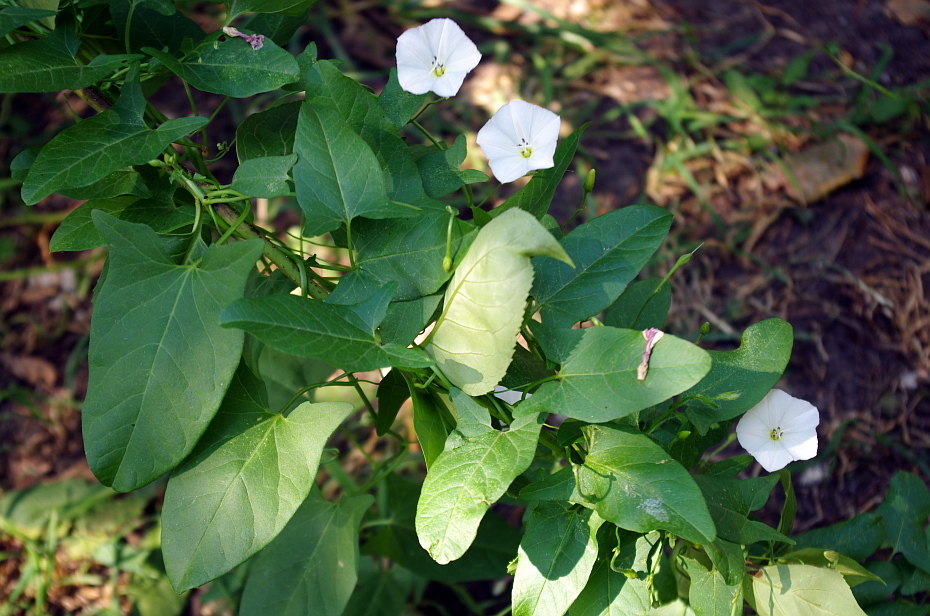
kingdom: Plantae
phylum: Tracheophyta
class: Magnoliopsida
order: Solanales
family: Convolvulaceae
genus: Convolvulus
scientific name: Convolvulus arvensis
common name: Field bindweed
